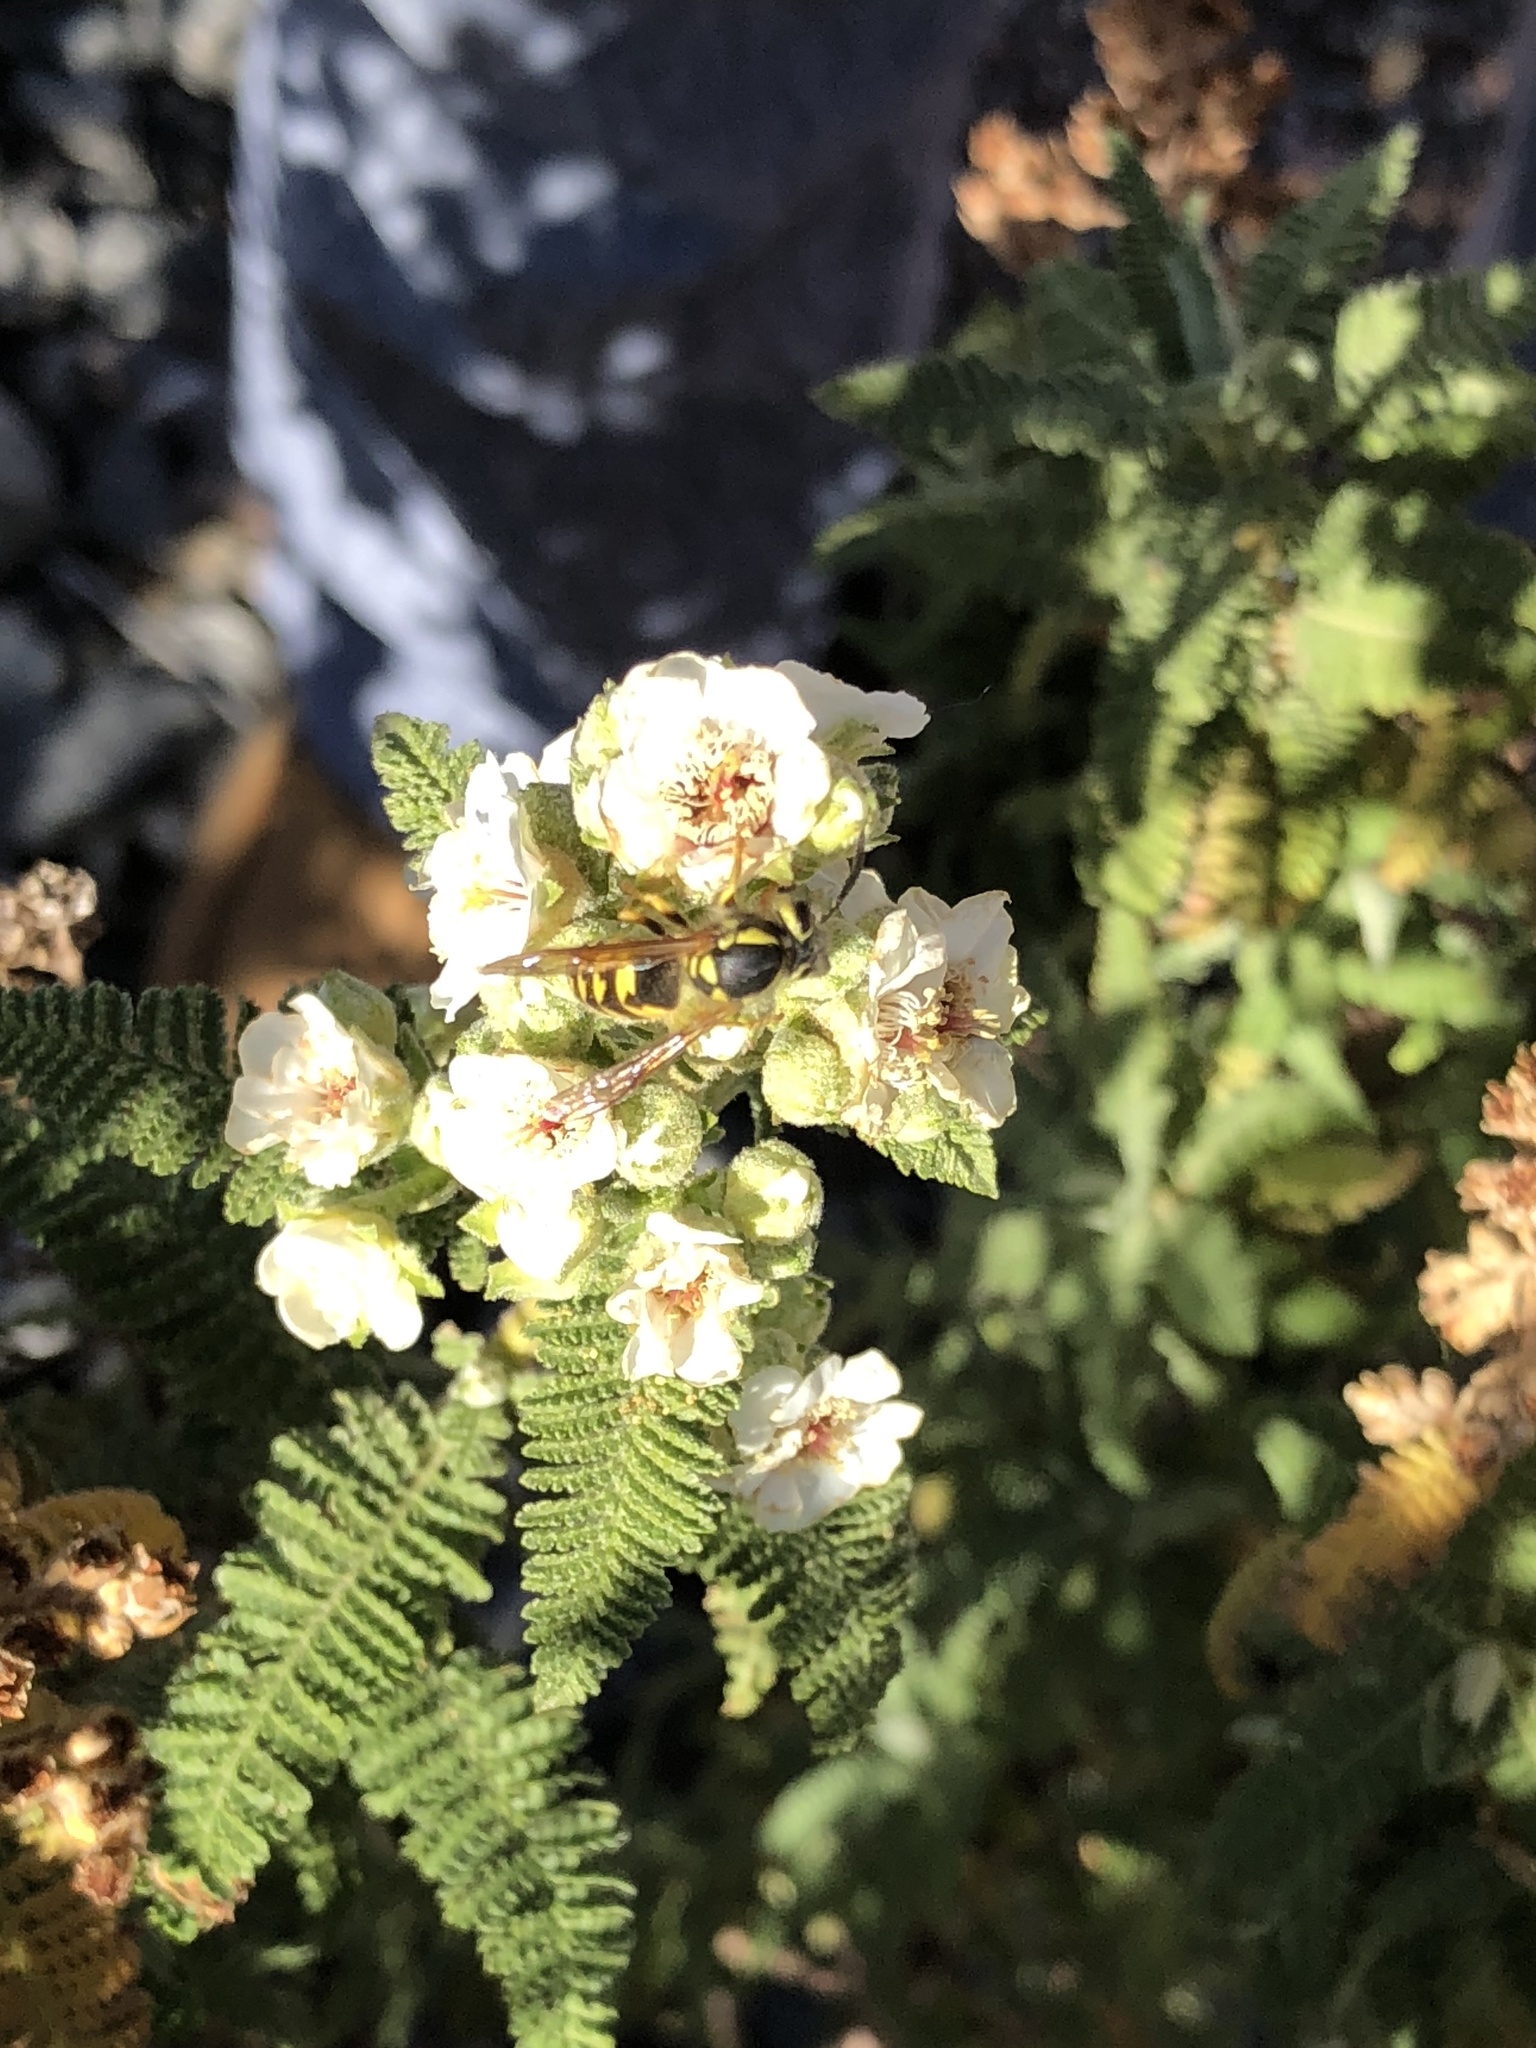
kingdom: Animalia
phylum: Arthropoda
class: Insecta
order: Hymenoptera
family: Vespidae
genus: Vespula
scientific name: Vespula pensylvanica
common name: Western yellowjacket
